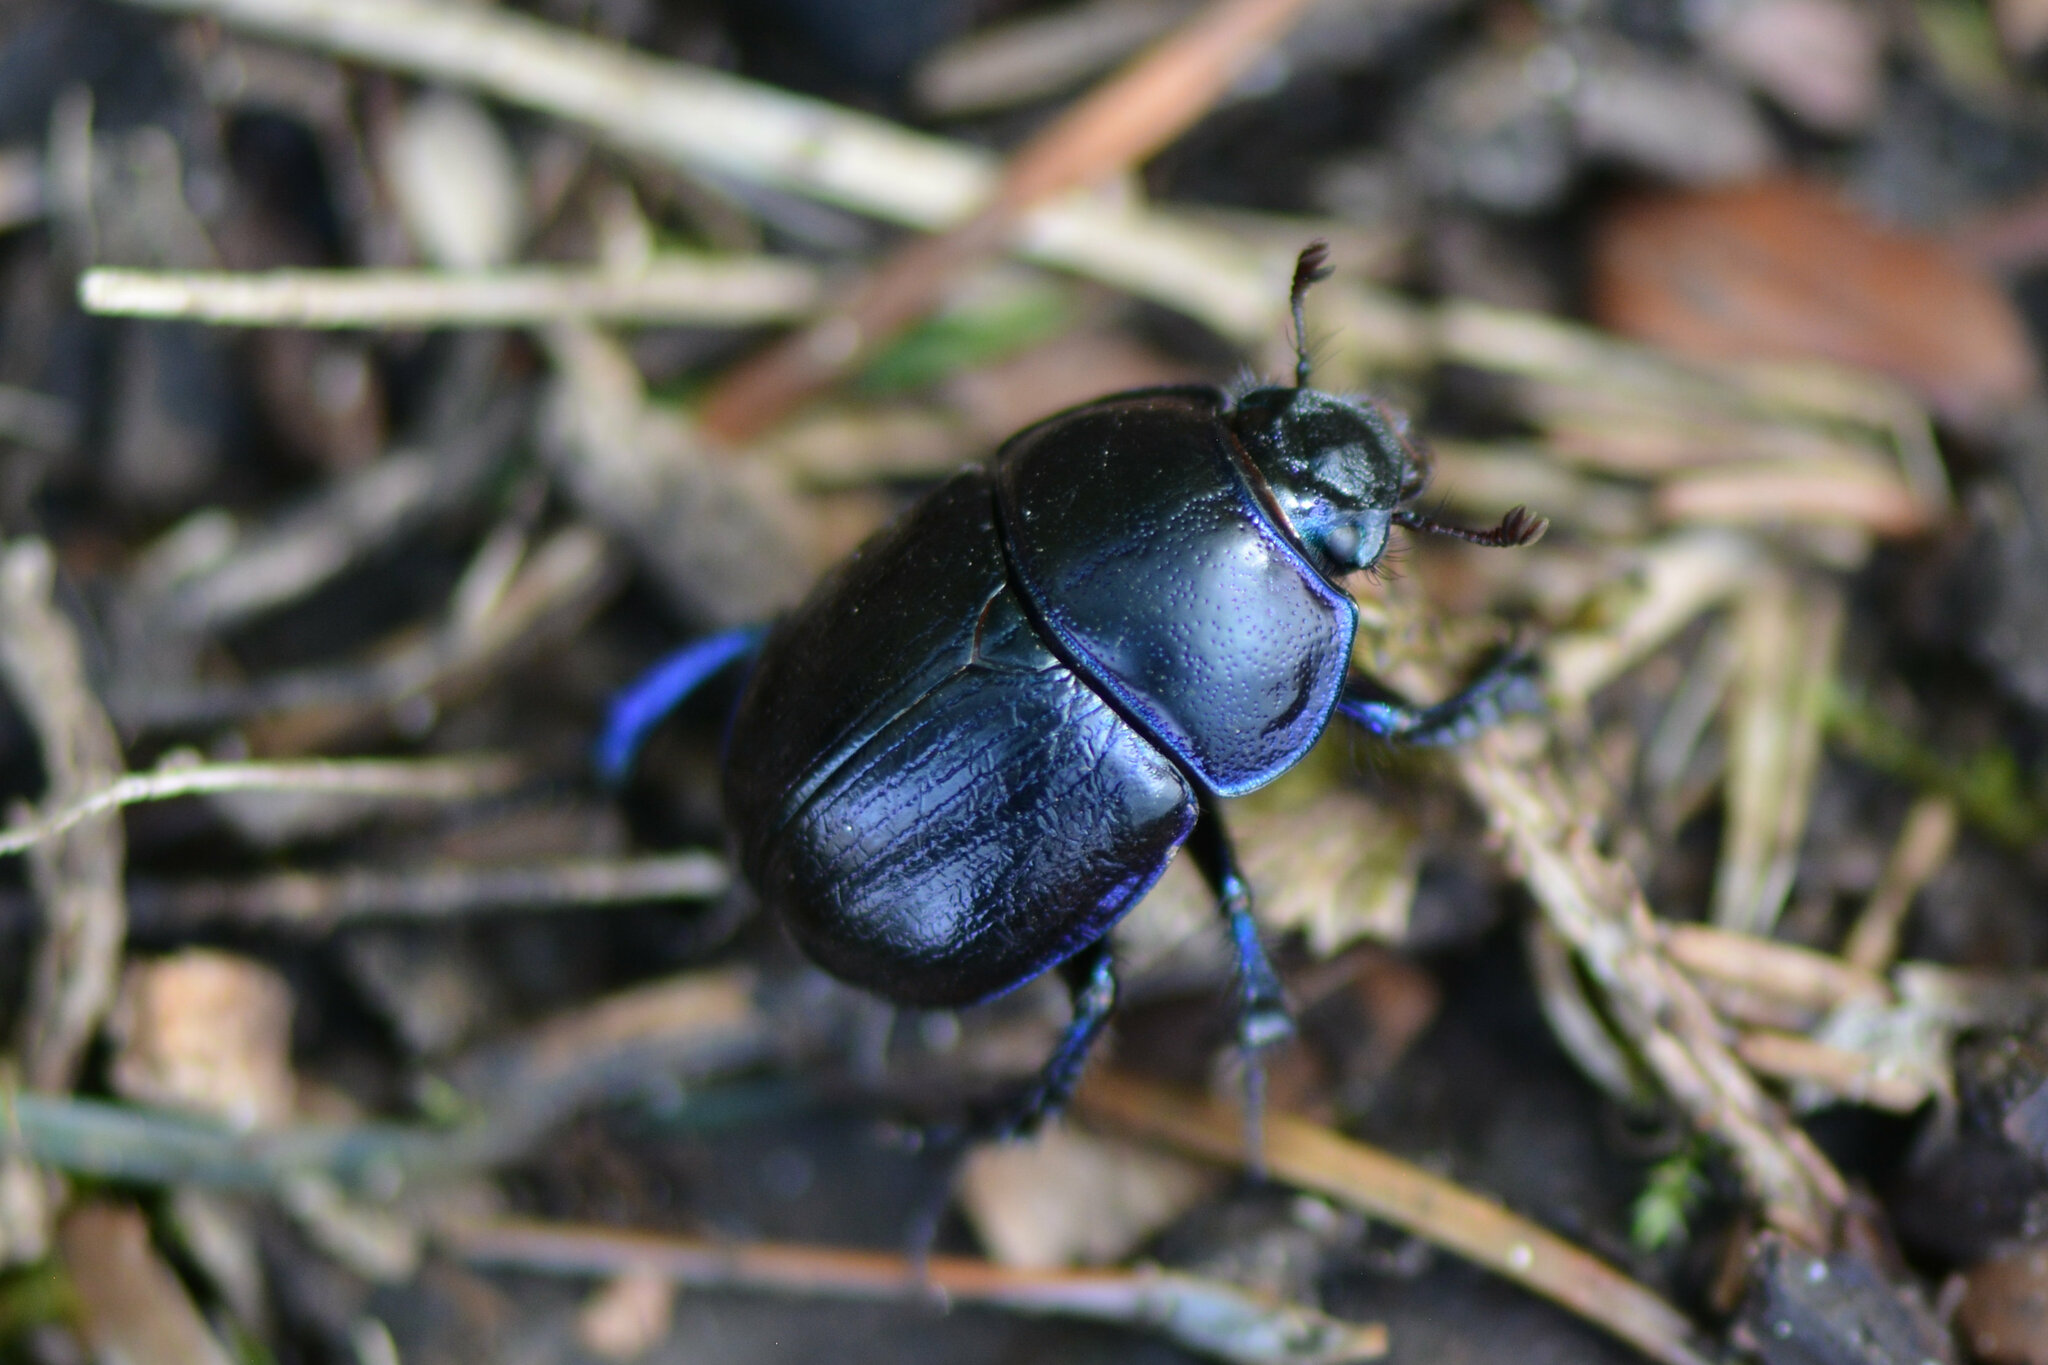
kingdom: Animalia
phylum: Arthropoda
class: Insecta
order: Coleoptera
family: Geotrupidae
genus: Anoplotrupes
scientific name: Anoplotrupes stercorosus
